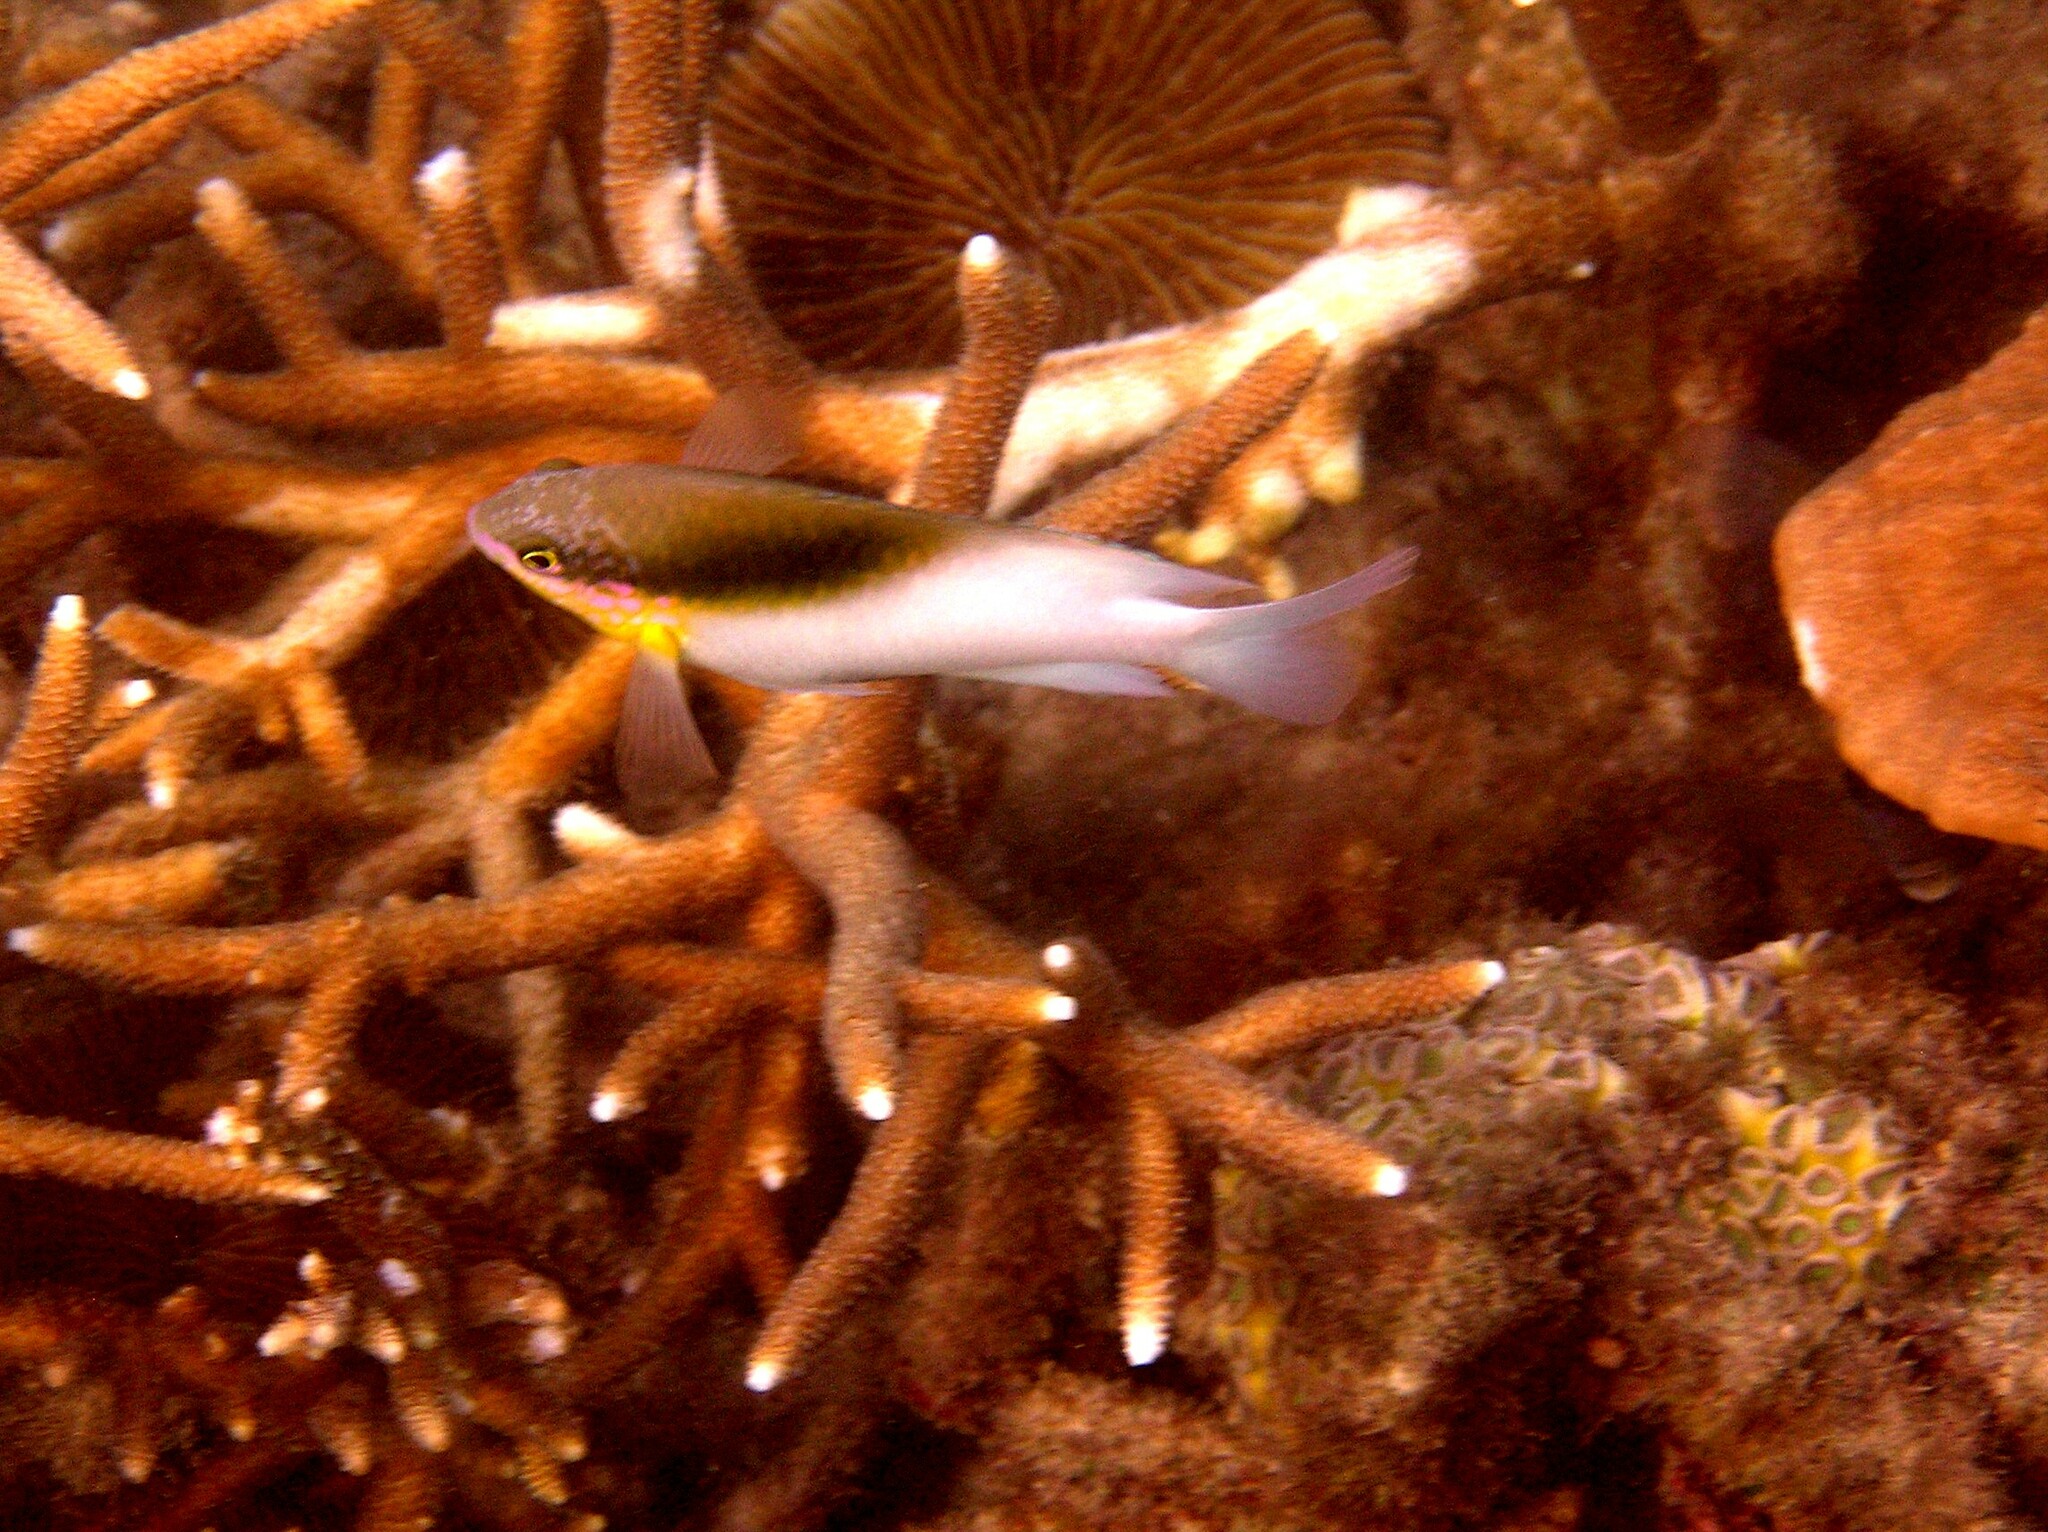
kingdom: Animalia
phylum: Chordata
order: Perciformes
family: Pomacentridae
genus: Dischistodus
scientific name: Dischistodus melanotus
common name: Black-vent damsel
